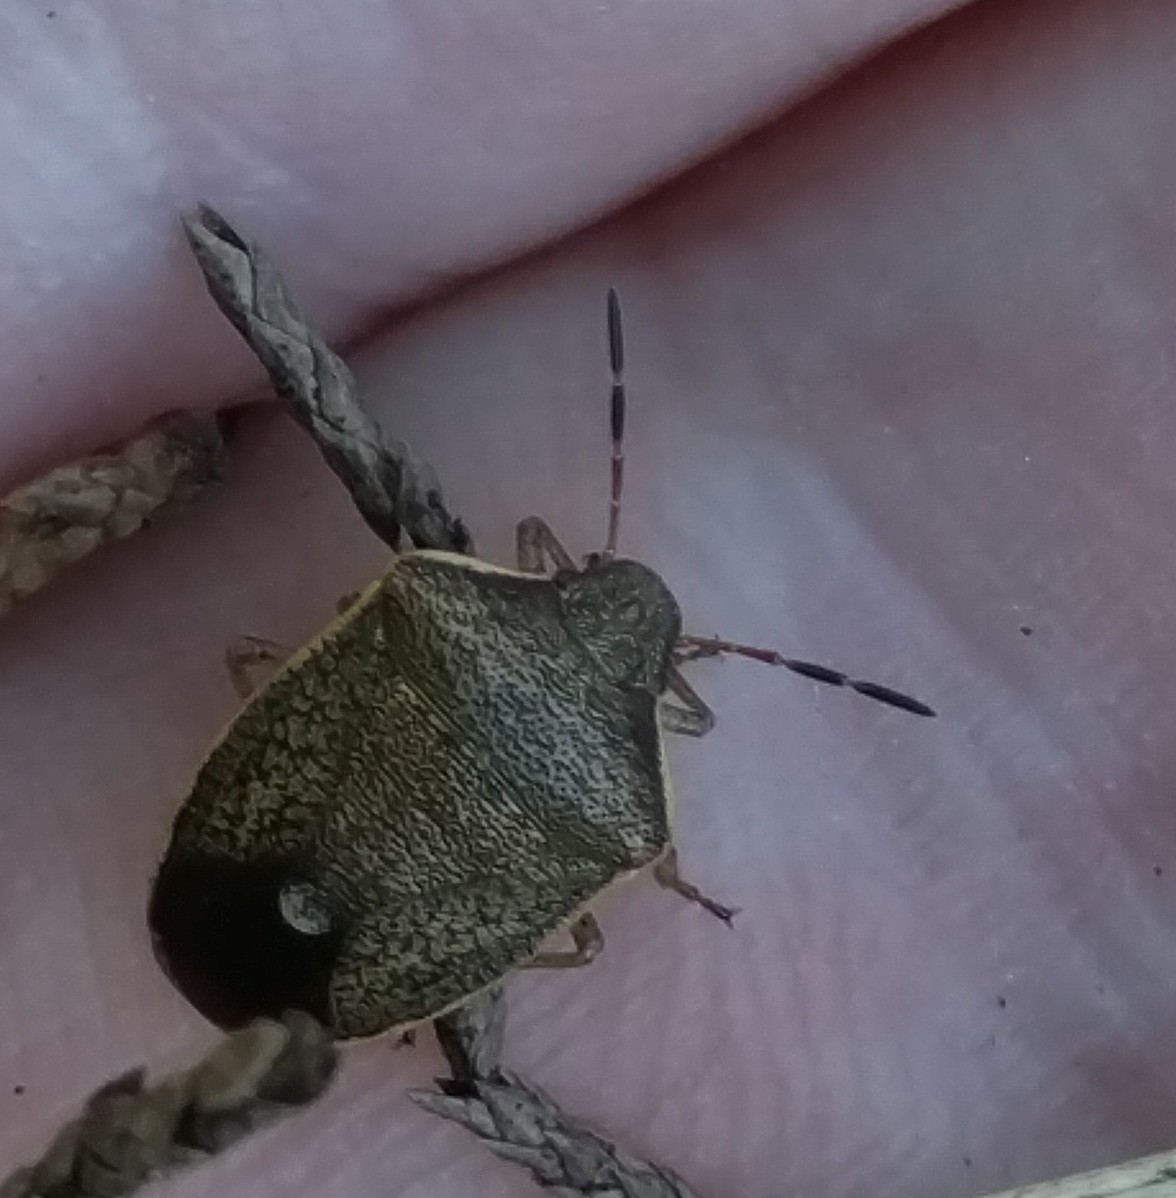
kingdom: Animalia
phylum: Arthropoda
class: Insecta
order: Hemiptera
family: Pentatomidae
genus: Holcostethus
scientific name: Holcostethus limbolarius
